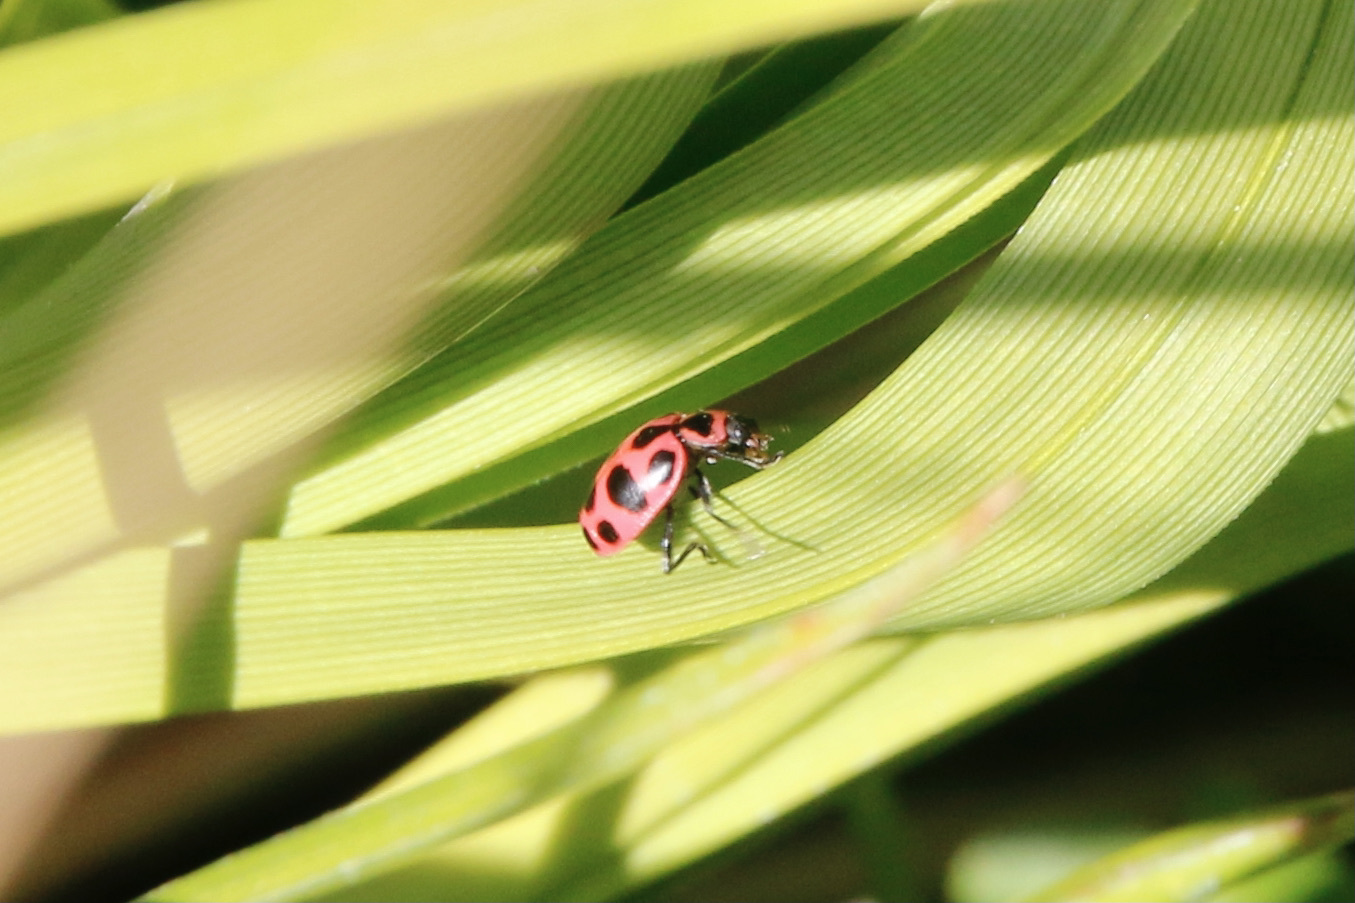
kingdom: Animalia
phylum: Arthropoda
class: Insecta
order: Coleoptera
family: Coccinellidae
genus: Coleomegilla
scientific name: Coleomegilla maculata
